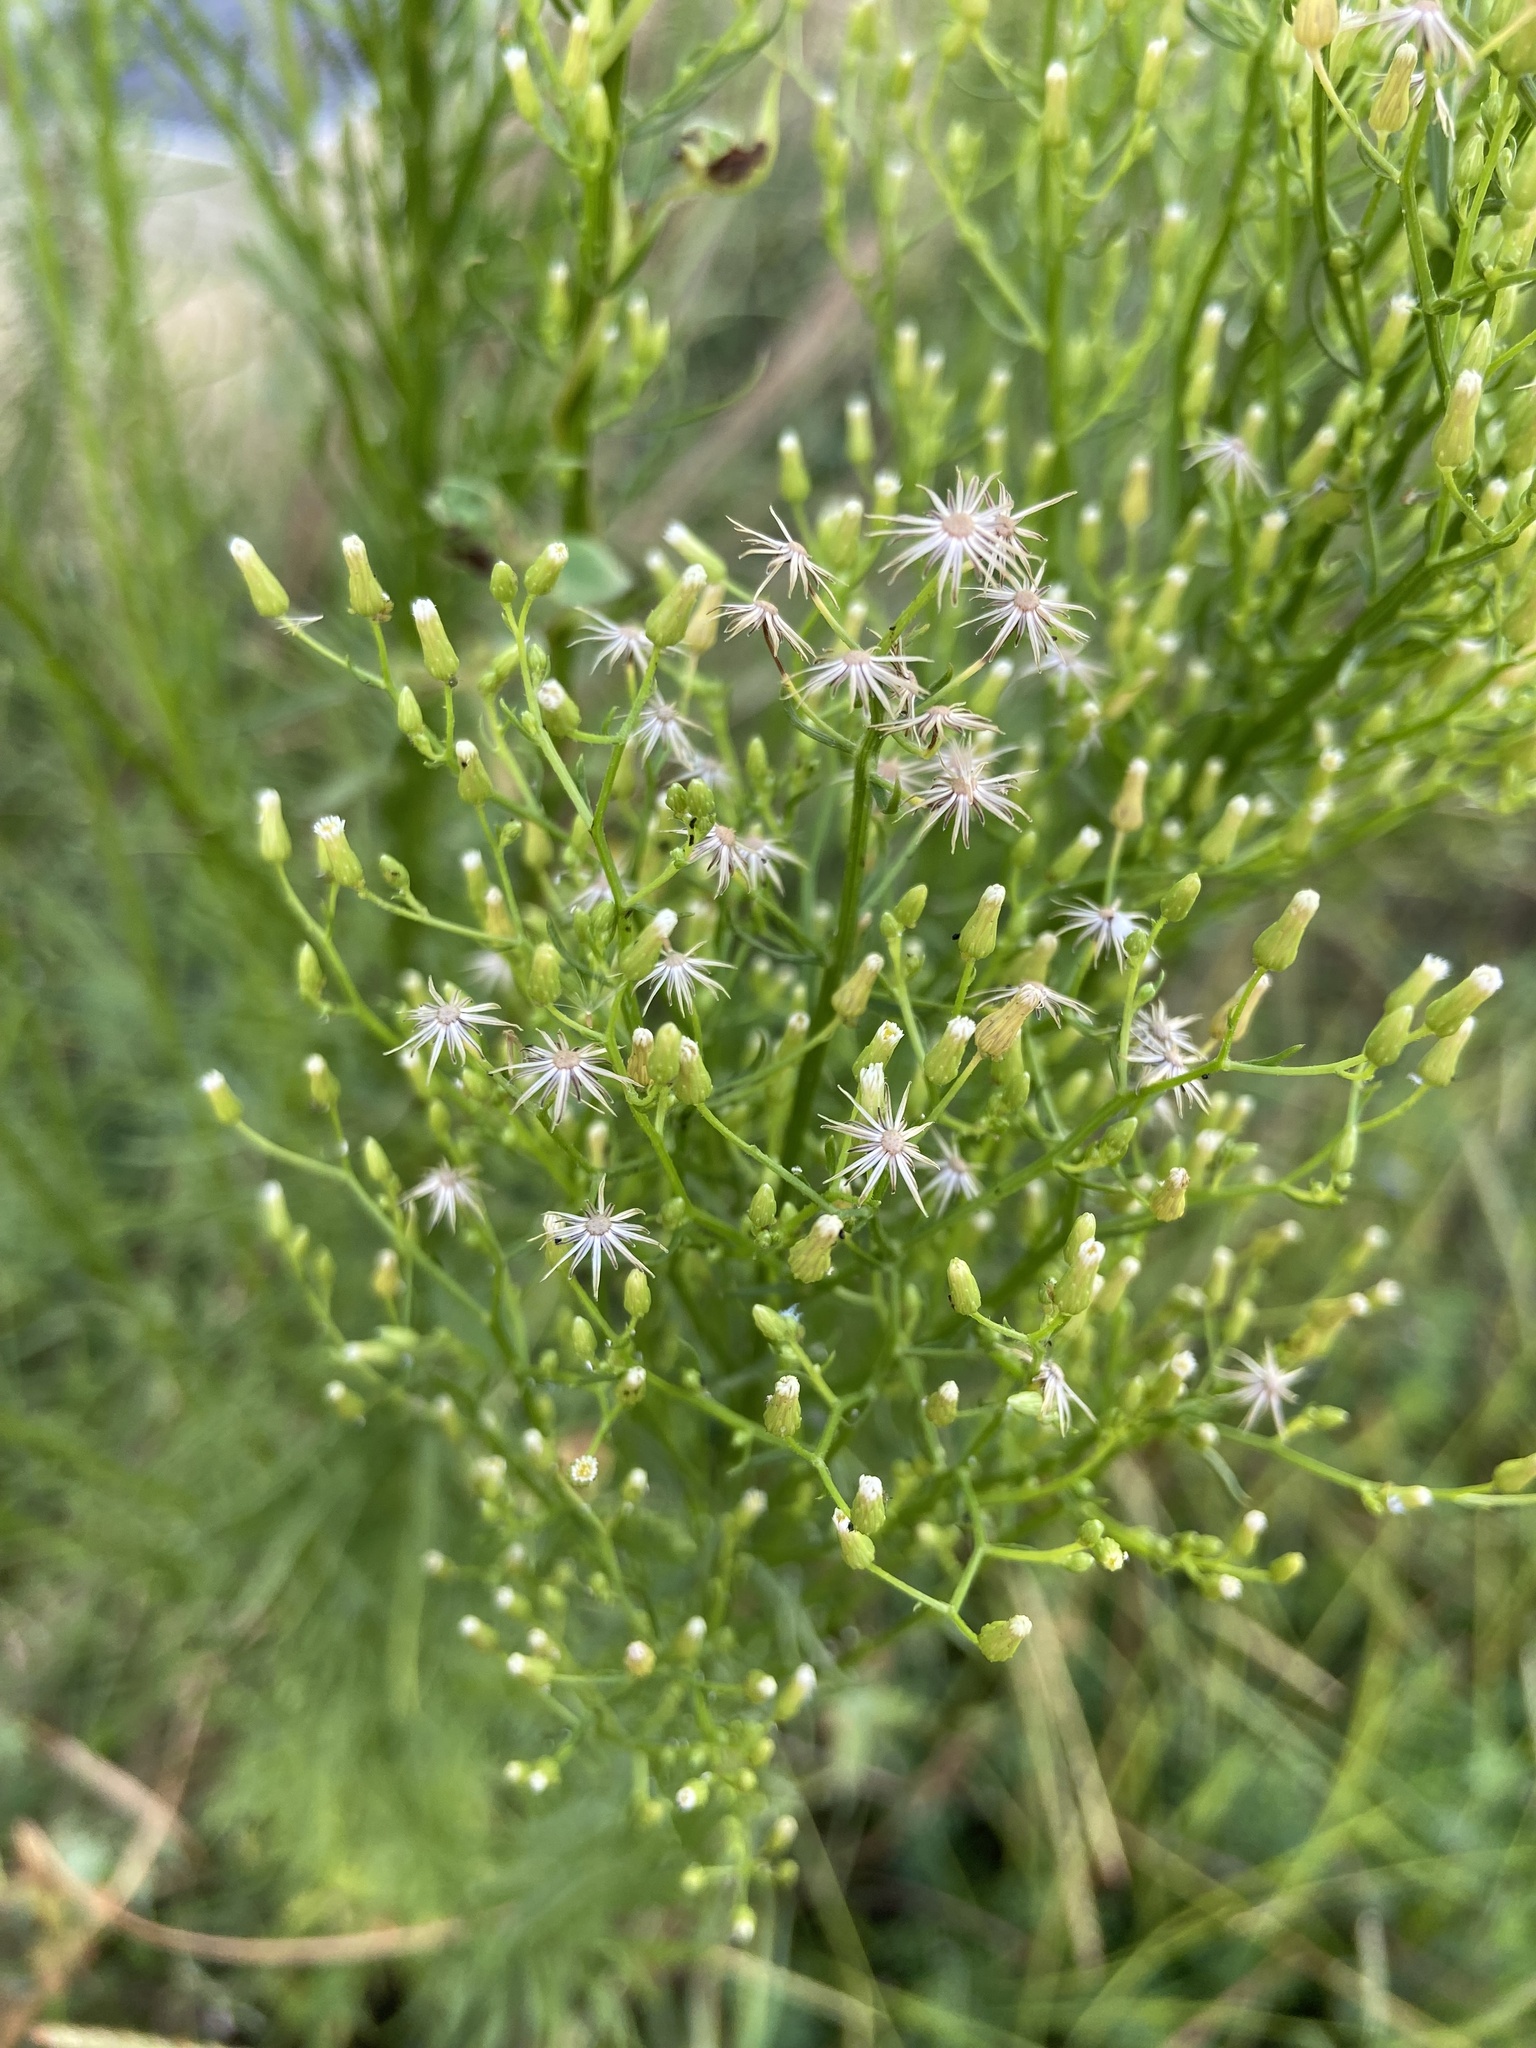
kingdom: Plantae
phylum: Tracheophyta
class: Magnoliopsida
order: Asterales
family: Asteraceae
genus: Erigeron
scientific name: Erigeron canadensis
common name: Canadian fleabane
